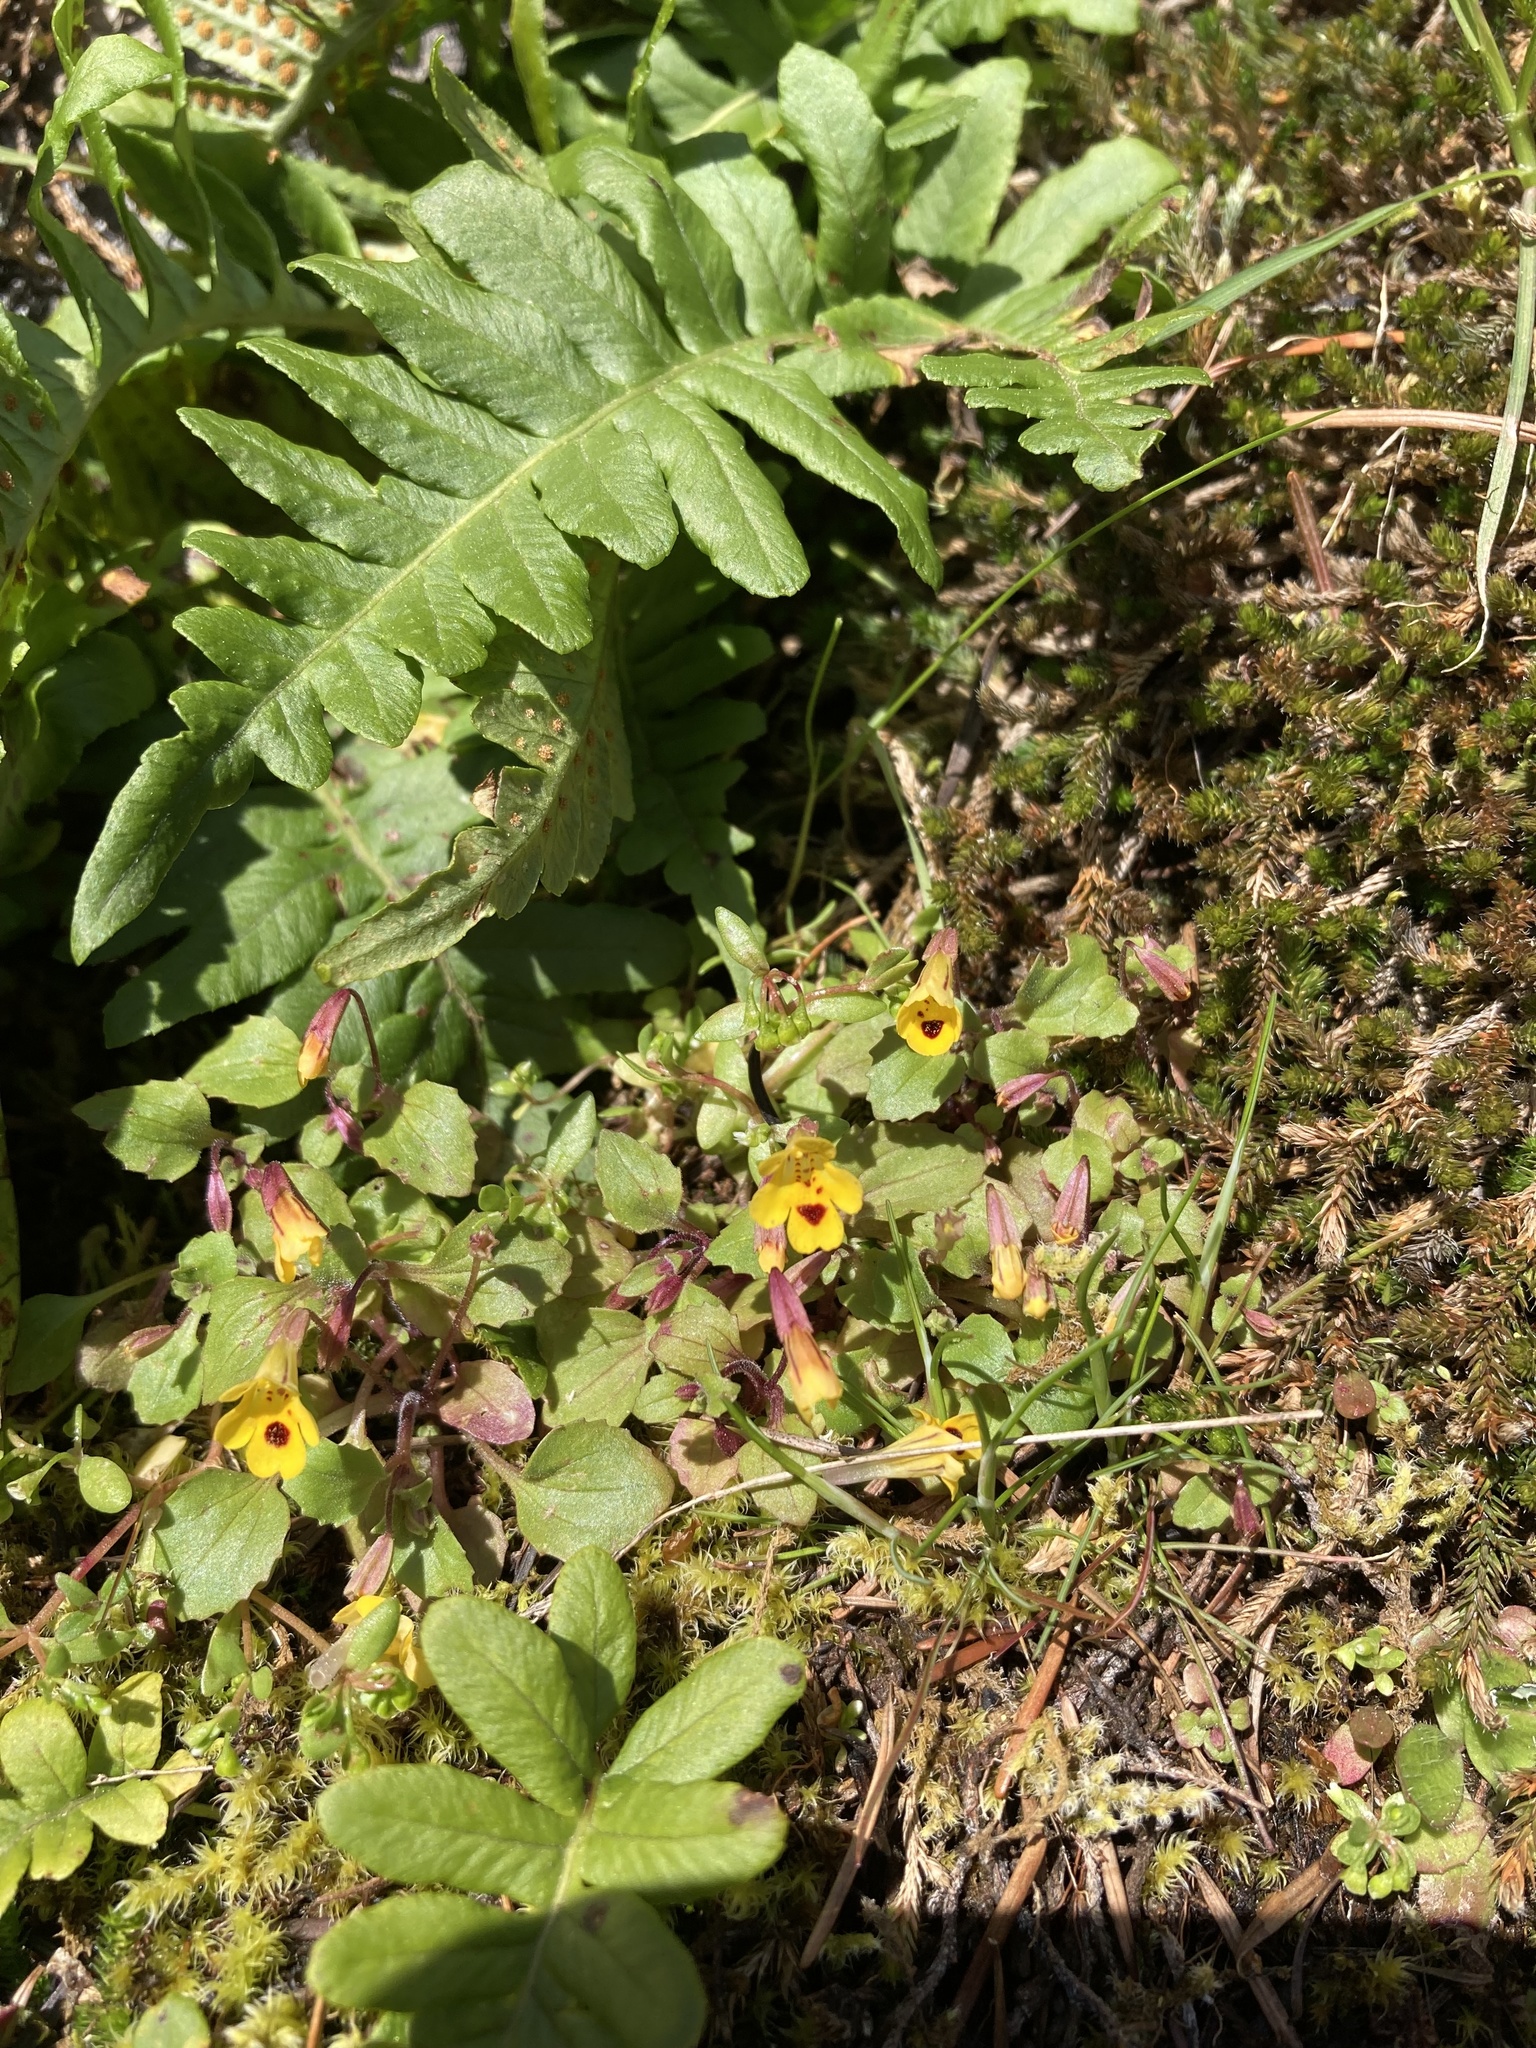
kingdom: Plantae
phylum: Tracheophyta
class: Magnoliopsida
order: Lamiales
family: Phrymaceae
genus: Erythranthe
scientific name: Erythranthe alsinoides
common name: Chickweed monkeyflower
